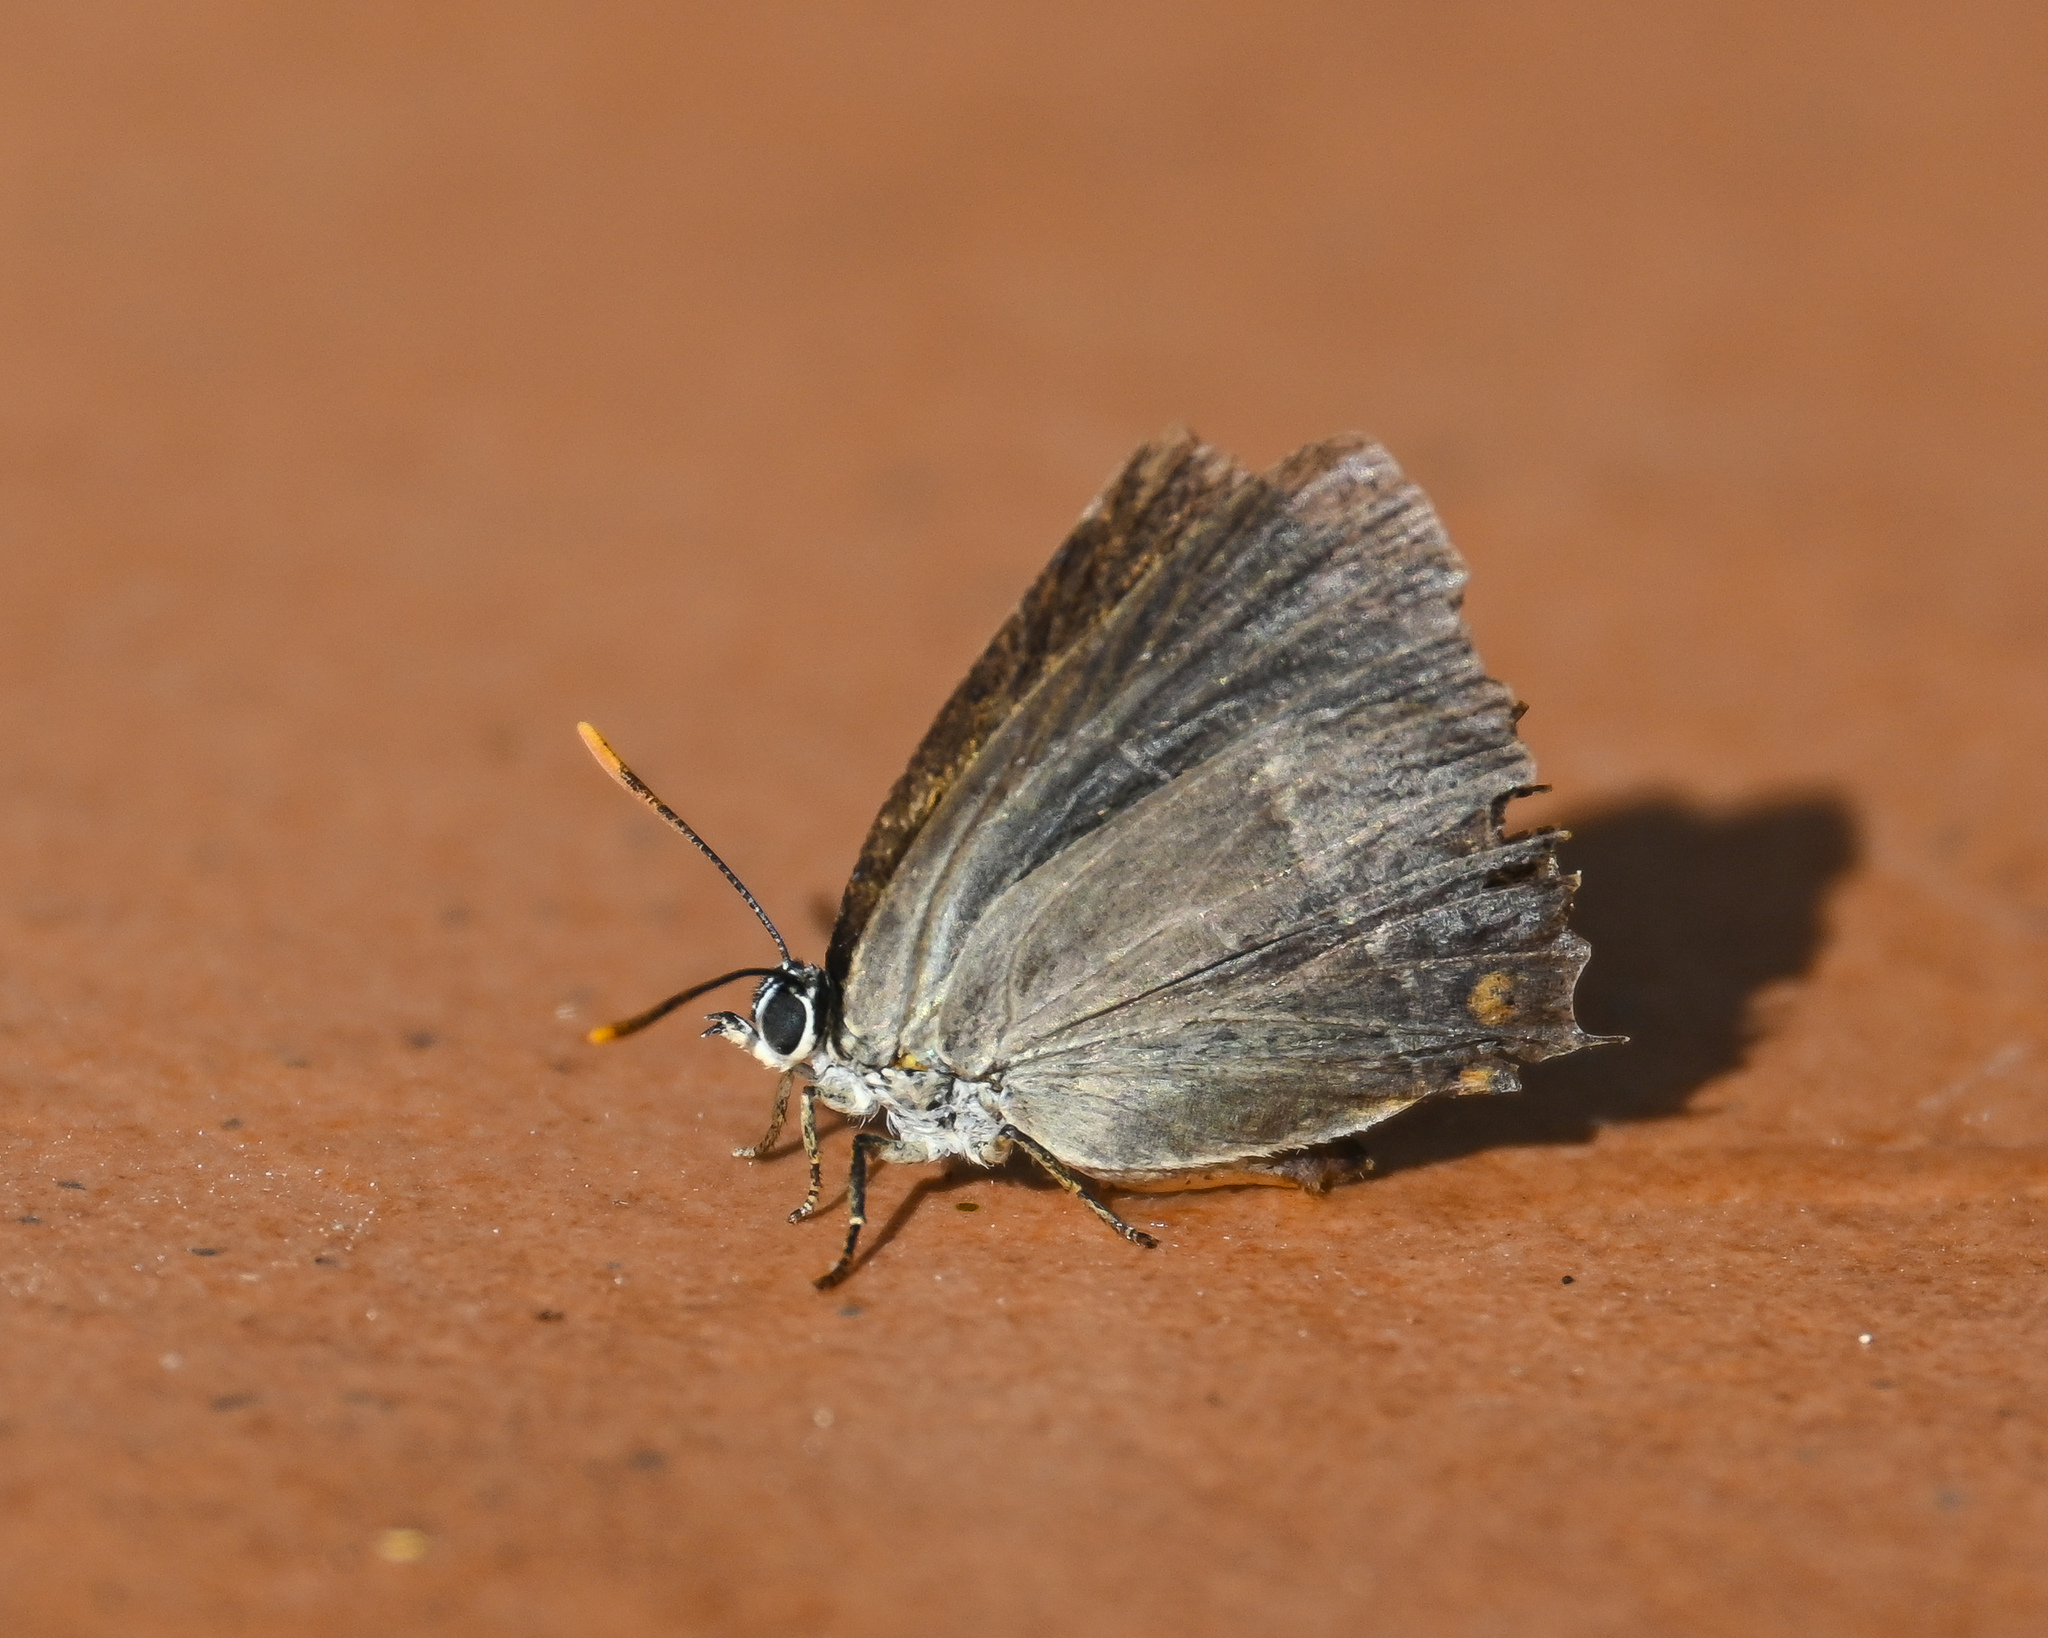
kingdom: Animalia
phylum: Arthropoda
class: Insecta
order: Lepidoptera
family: Lycaenidae
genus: Quercusia
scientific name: Quercusia quercus
